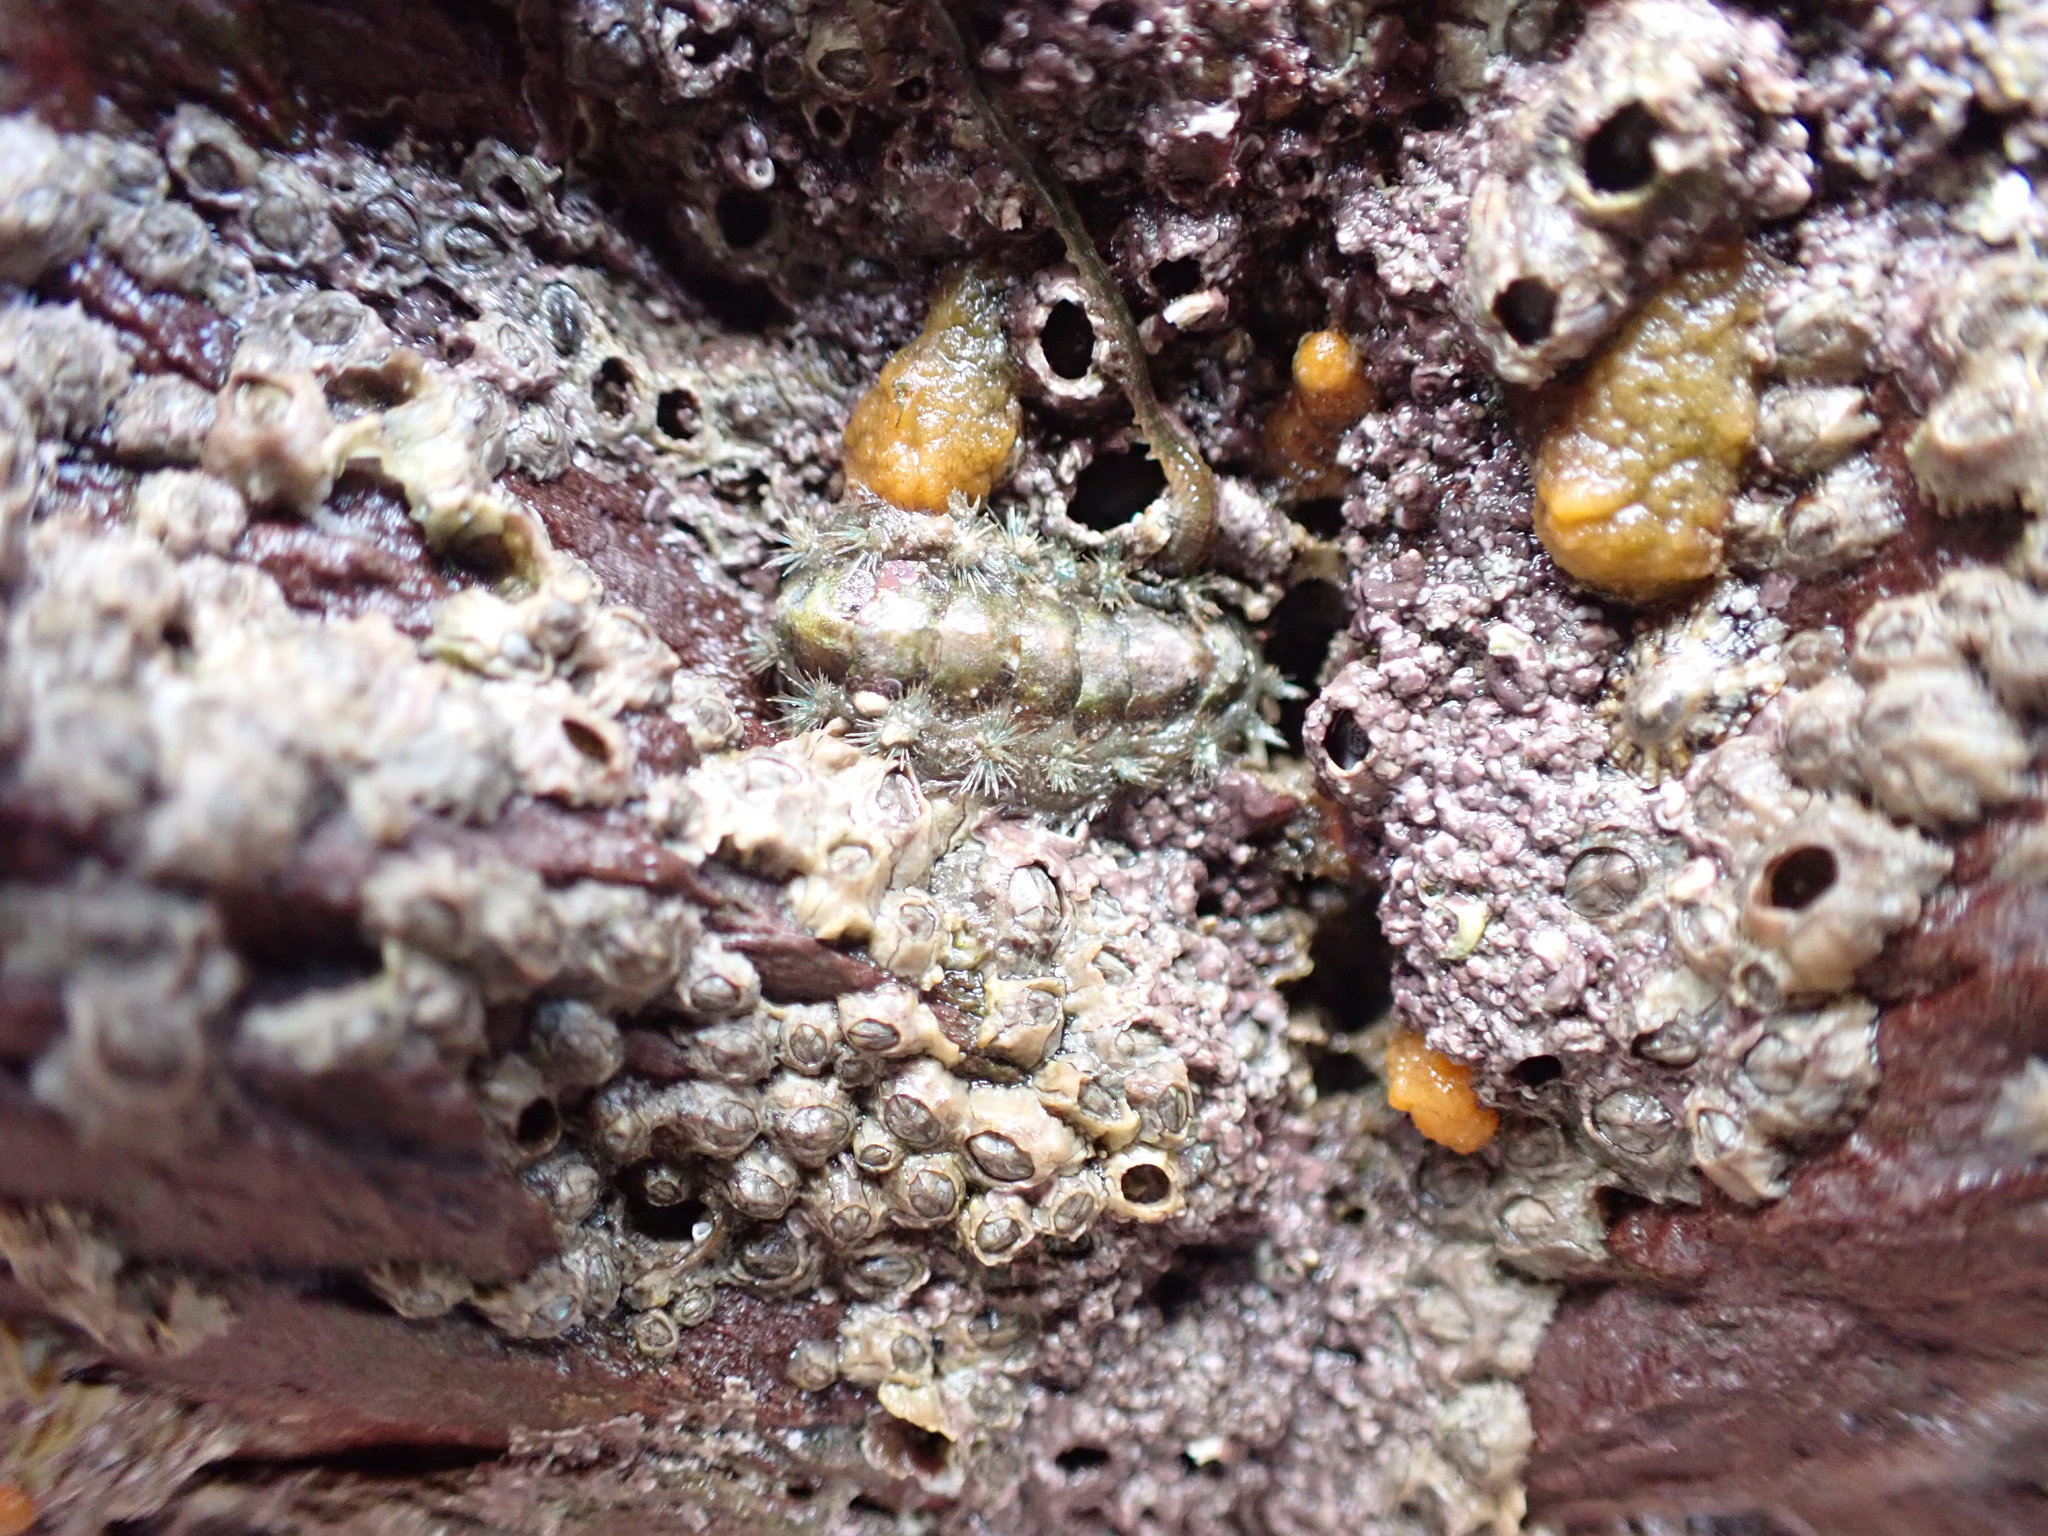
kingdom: Animalia
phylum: Mollusca
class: Polyplacophora
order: Chitonida
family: Acanthochitonidae
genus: Acanthochitona
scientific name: Acanthochitona crinita
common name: Bristly mail chiton
